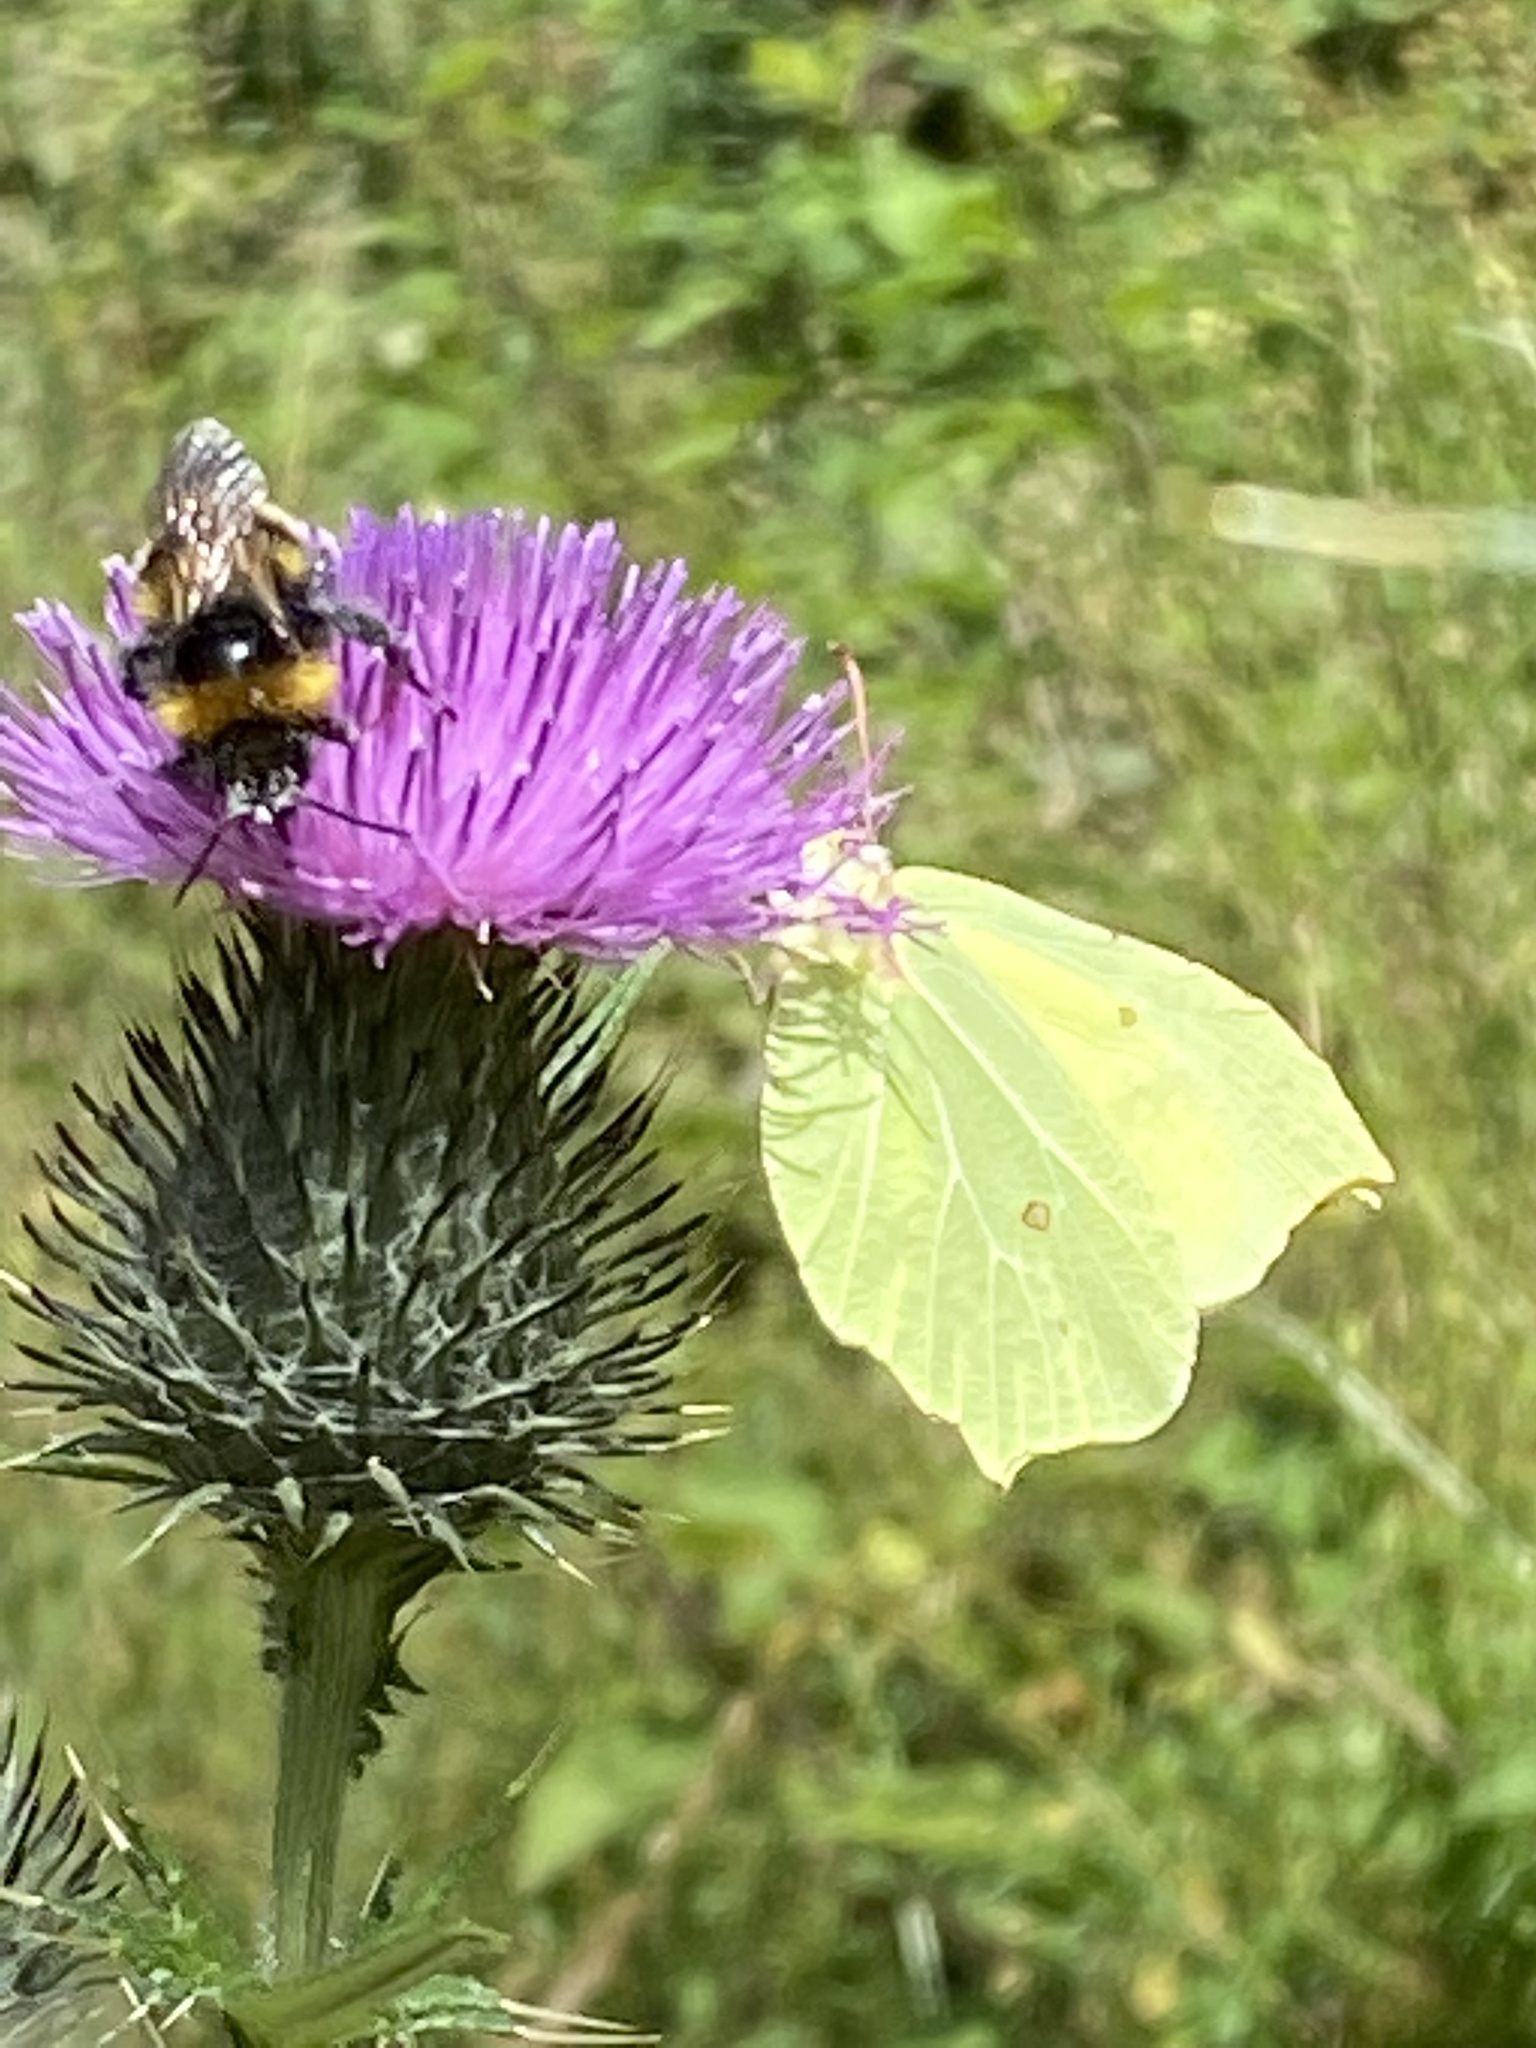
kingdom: Animalia
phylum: Arthropoda
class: Insecta
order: Lepidoptera
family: Pieridae
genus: Gonepteryx
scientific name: Gonepteryx rhamni
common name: Brimstone
